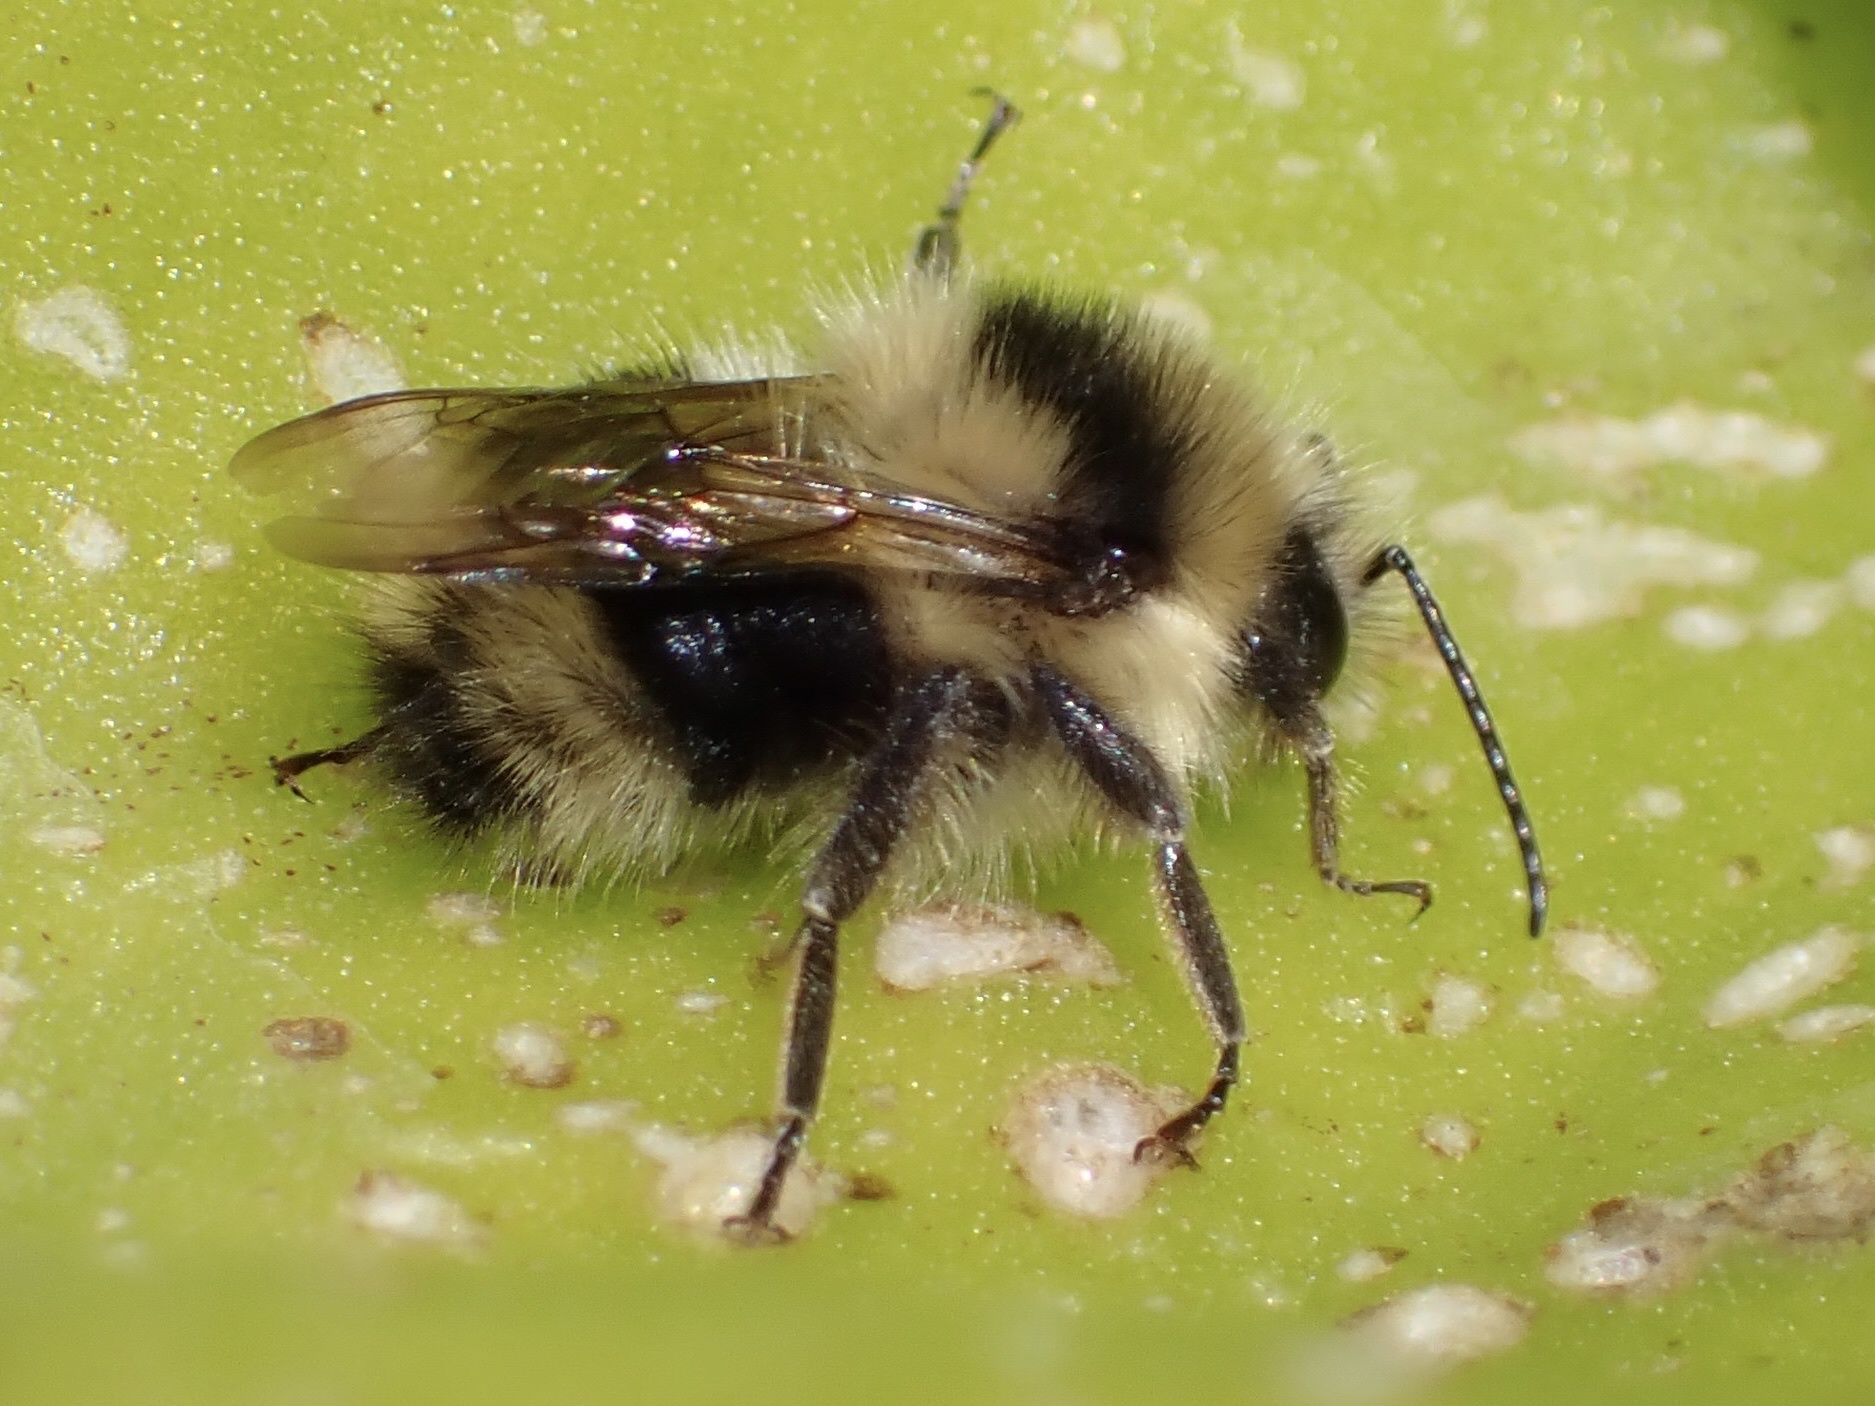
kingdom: Animalia
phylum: Arthropoda
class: Insecta
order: Hymenoptera
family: Apidae
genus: Bombus
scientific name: Bombus melanopygus
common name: Black tail bumble bee
